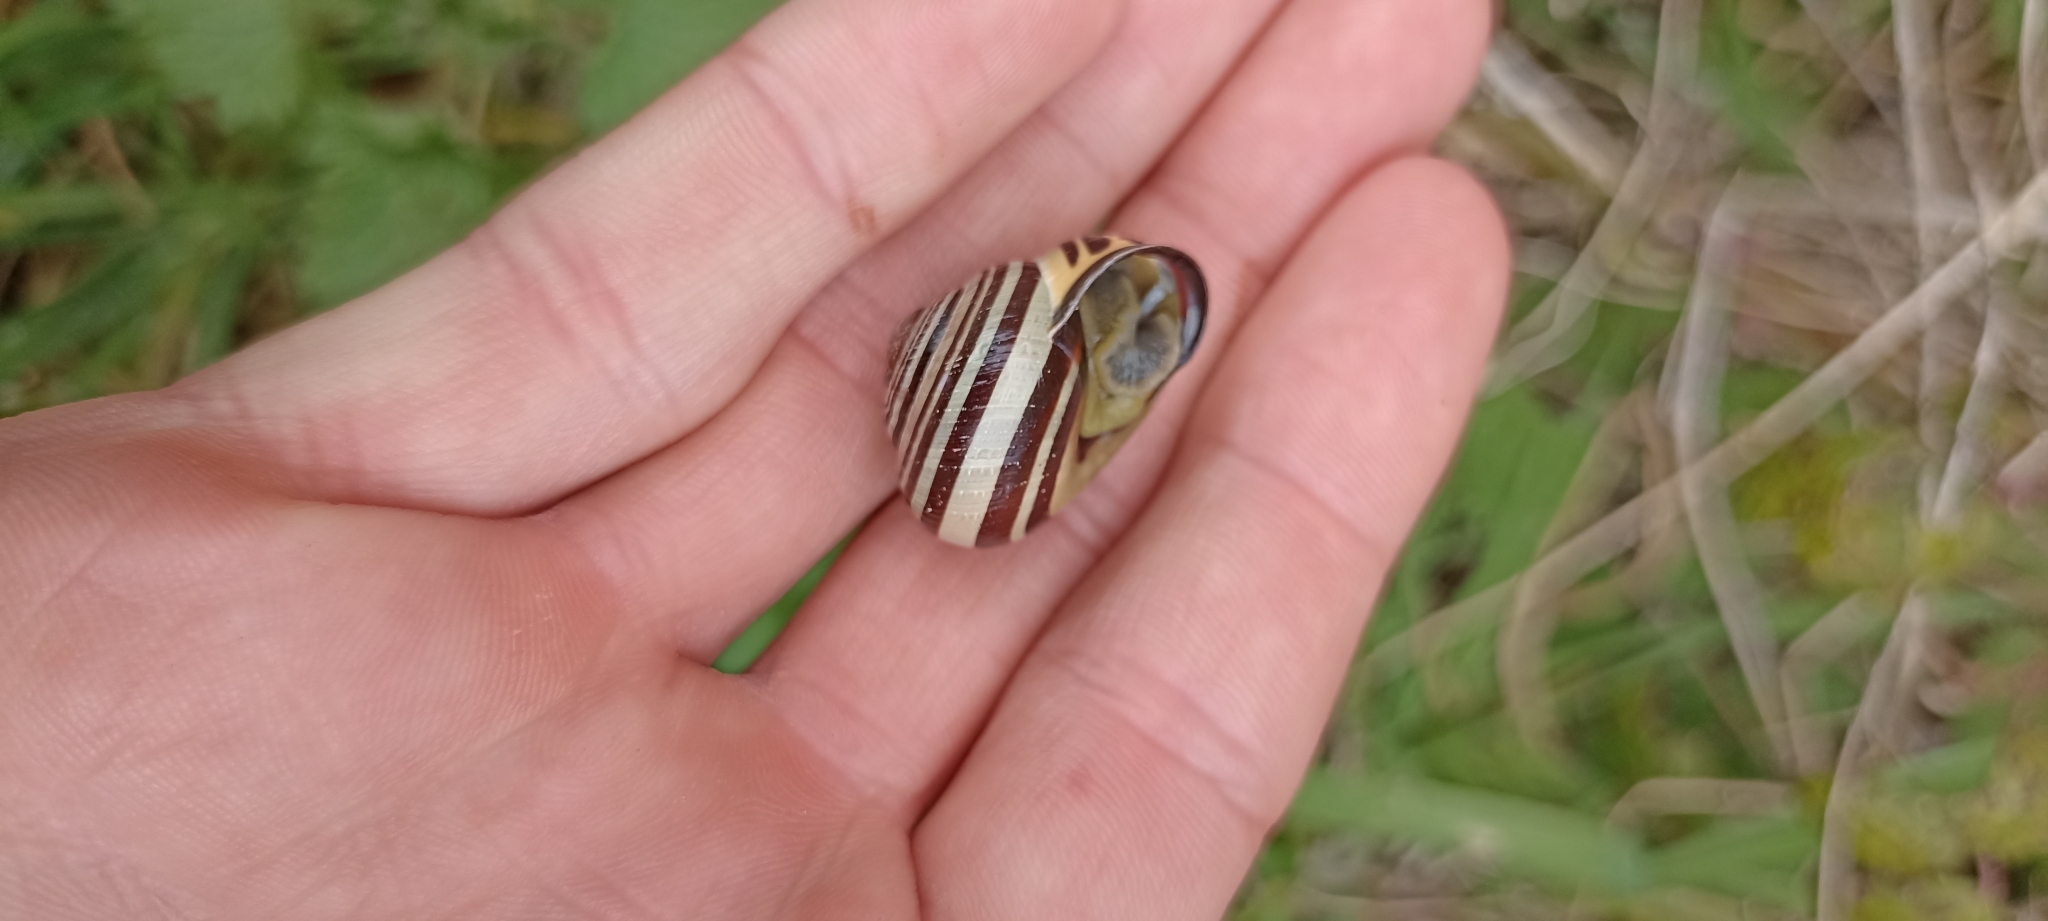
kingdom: Animalia
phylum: Mollusca
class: Gastropoda
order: Stylommatophora
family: Helicidae
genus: Cepaea
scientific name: Cepaea nemoralis
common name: Grovesnail
